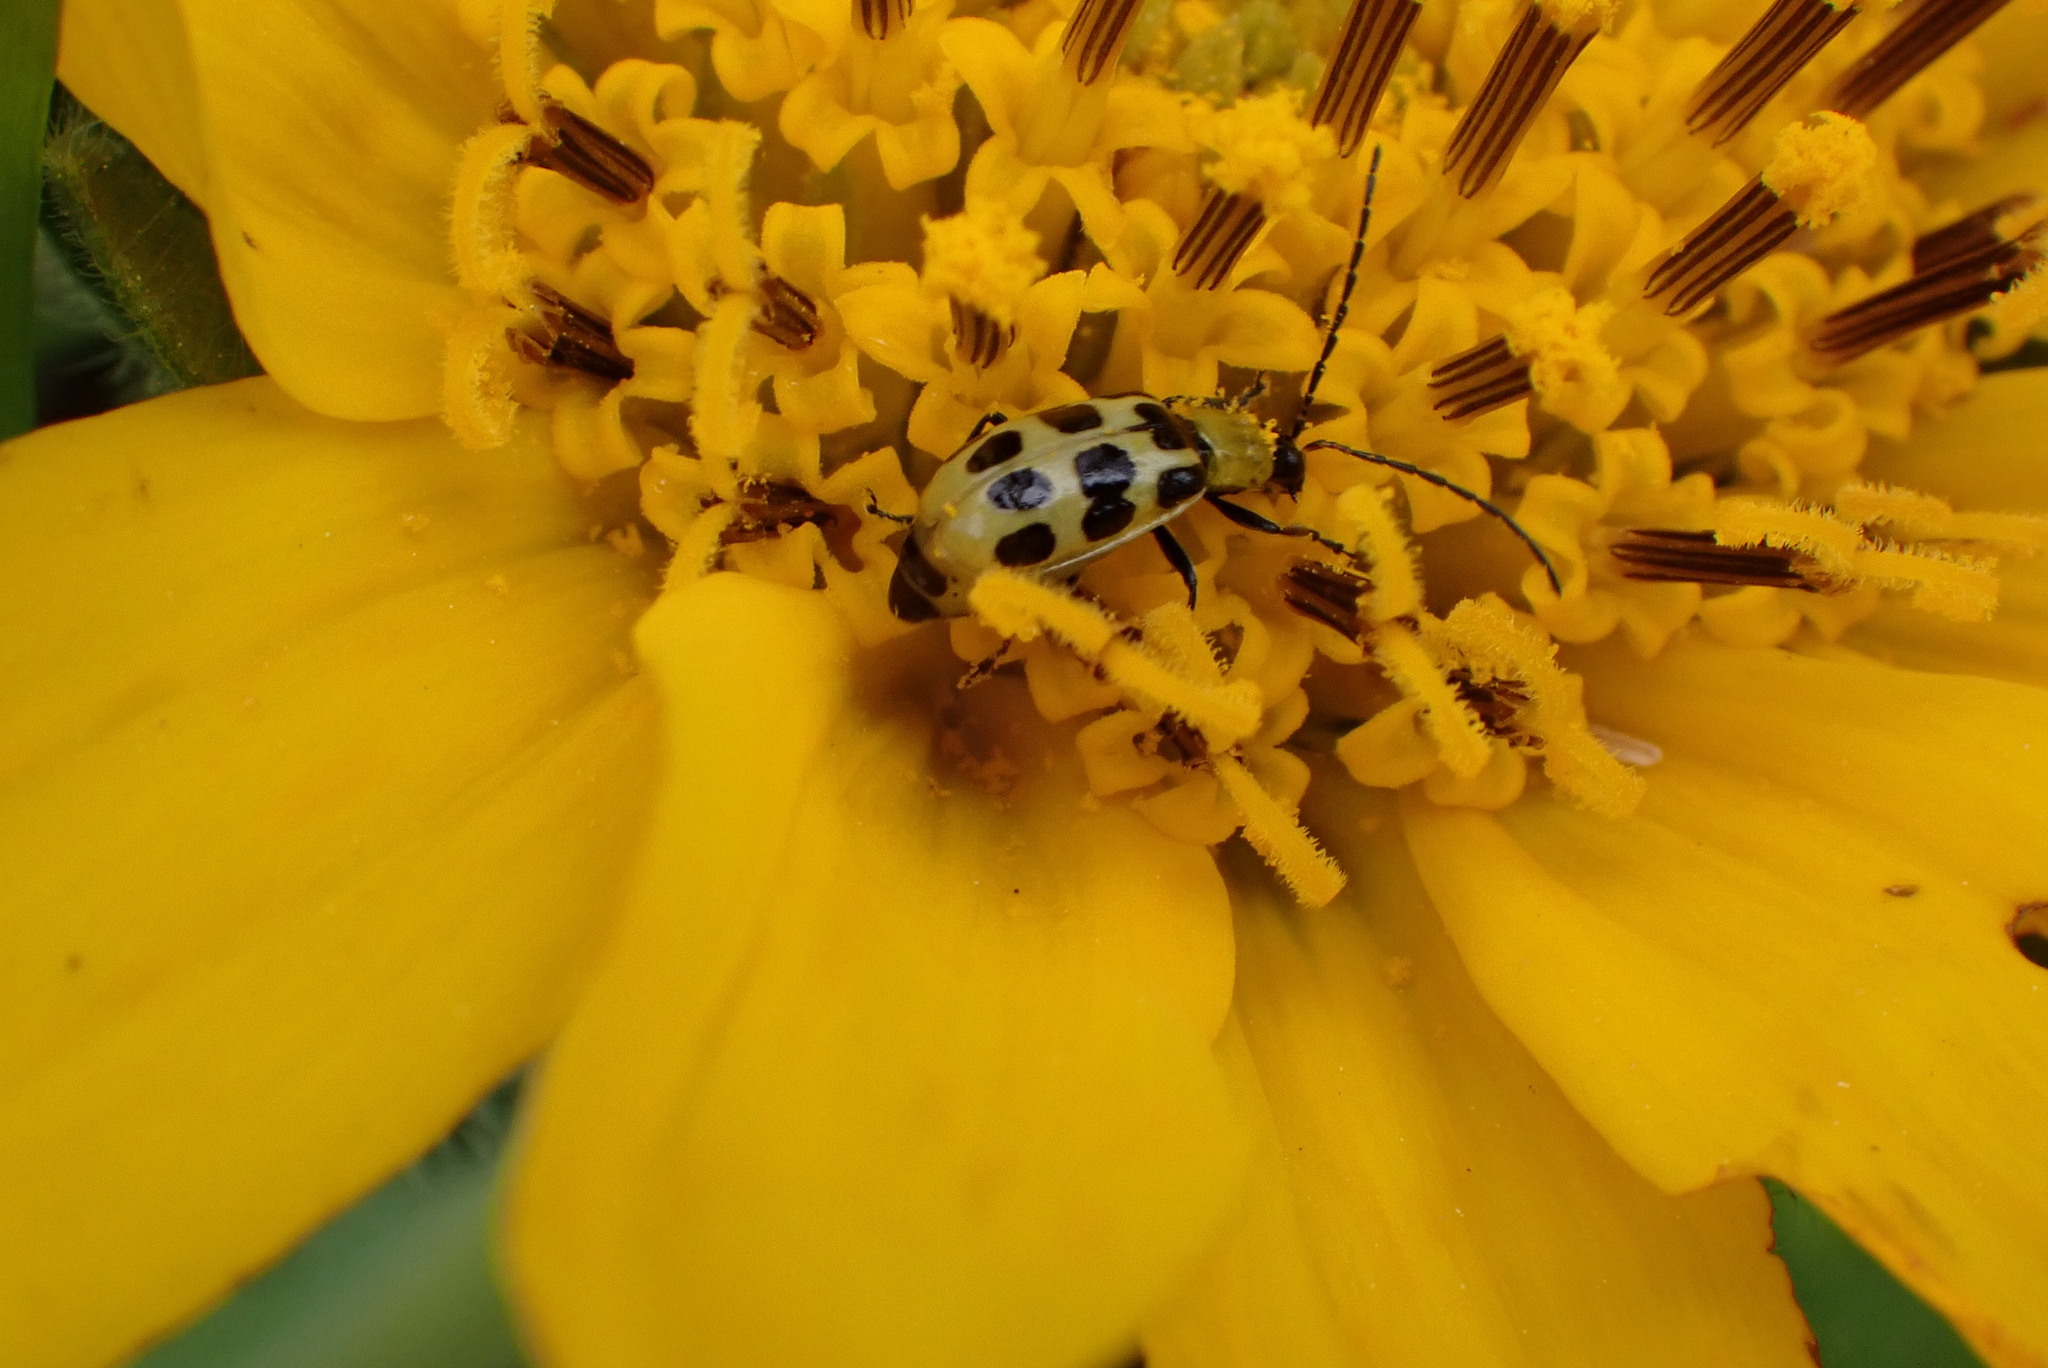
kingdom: Animalia
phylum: Arthropoda
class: Insecta
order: Coleoptera
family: Chrysomelidae
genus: Diabrotica
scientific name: Diabrotica undecimpunctata
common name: Spotted cucumber beetle
